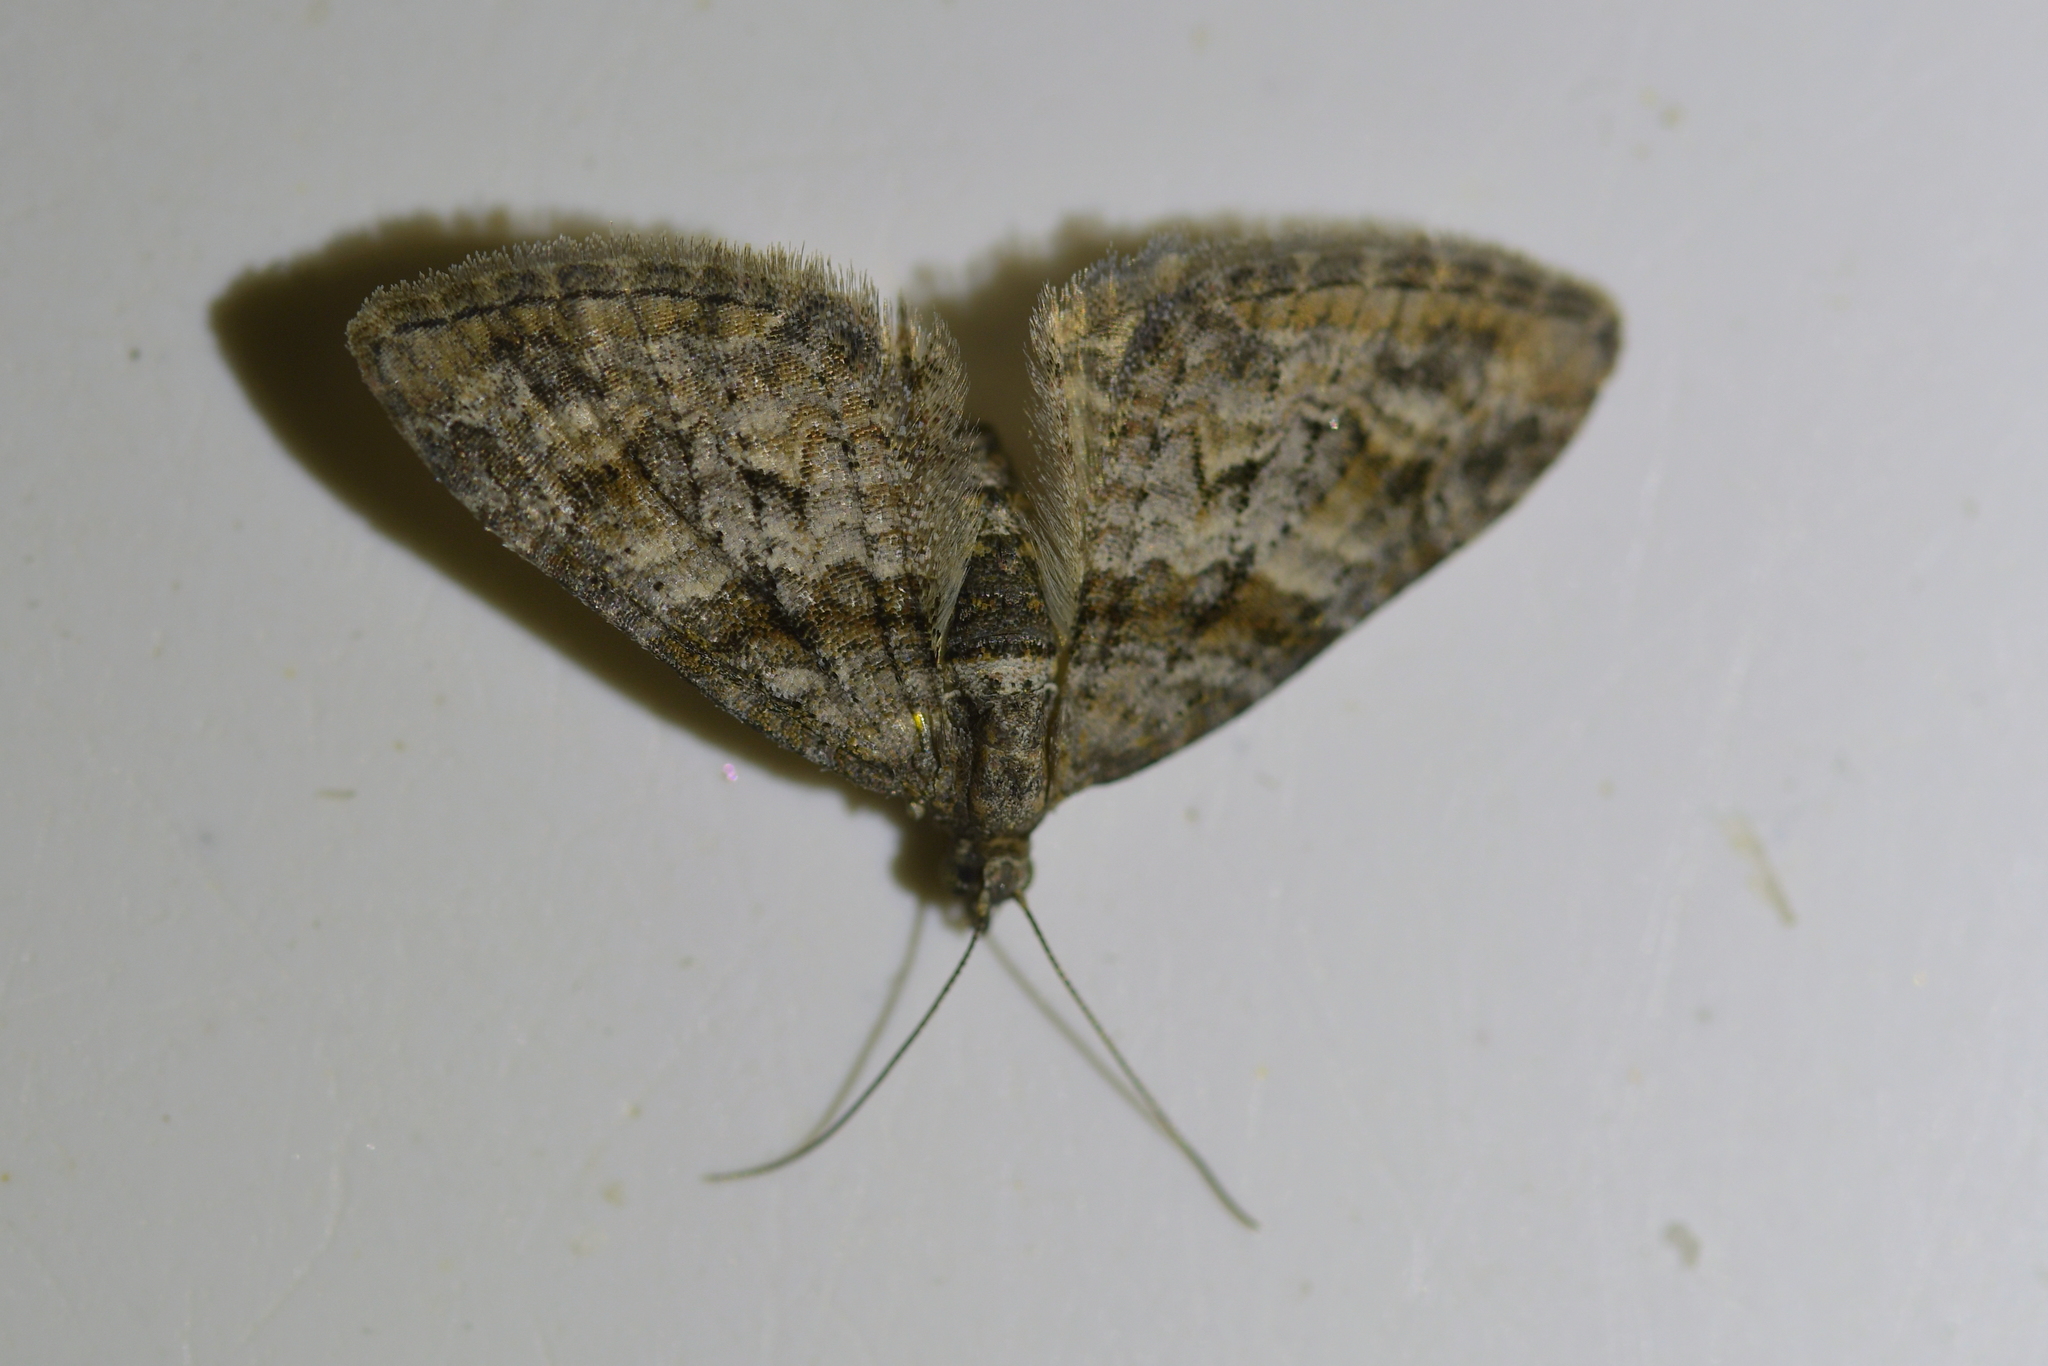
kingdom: Animalia
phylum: Arthropoda
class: Insecta
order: Lepidoptera
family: Geometridae
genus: Phrissogonus
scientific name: Phrissogonus laticostata
